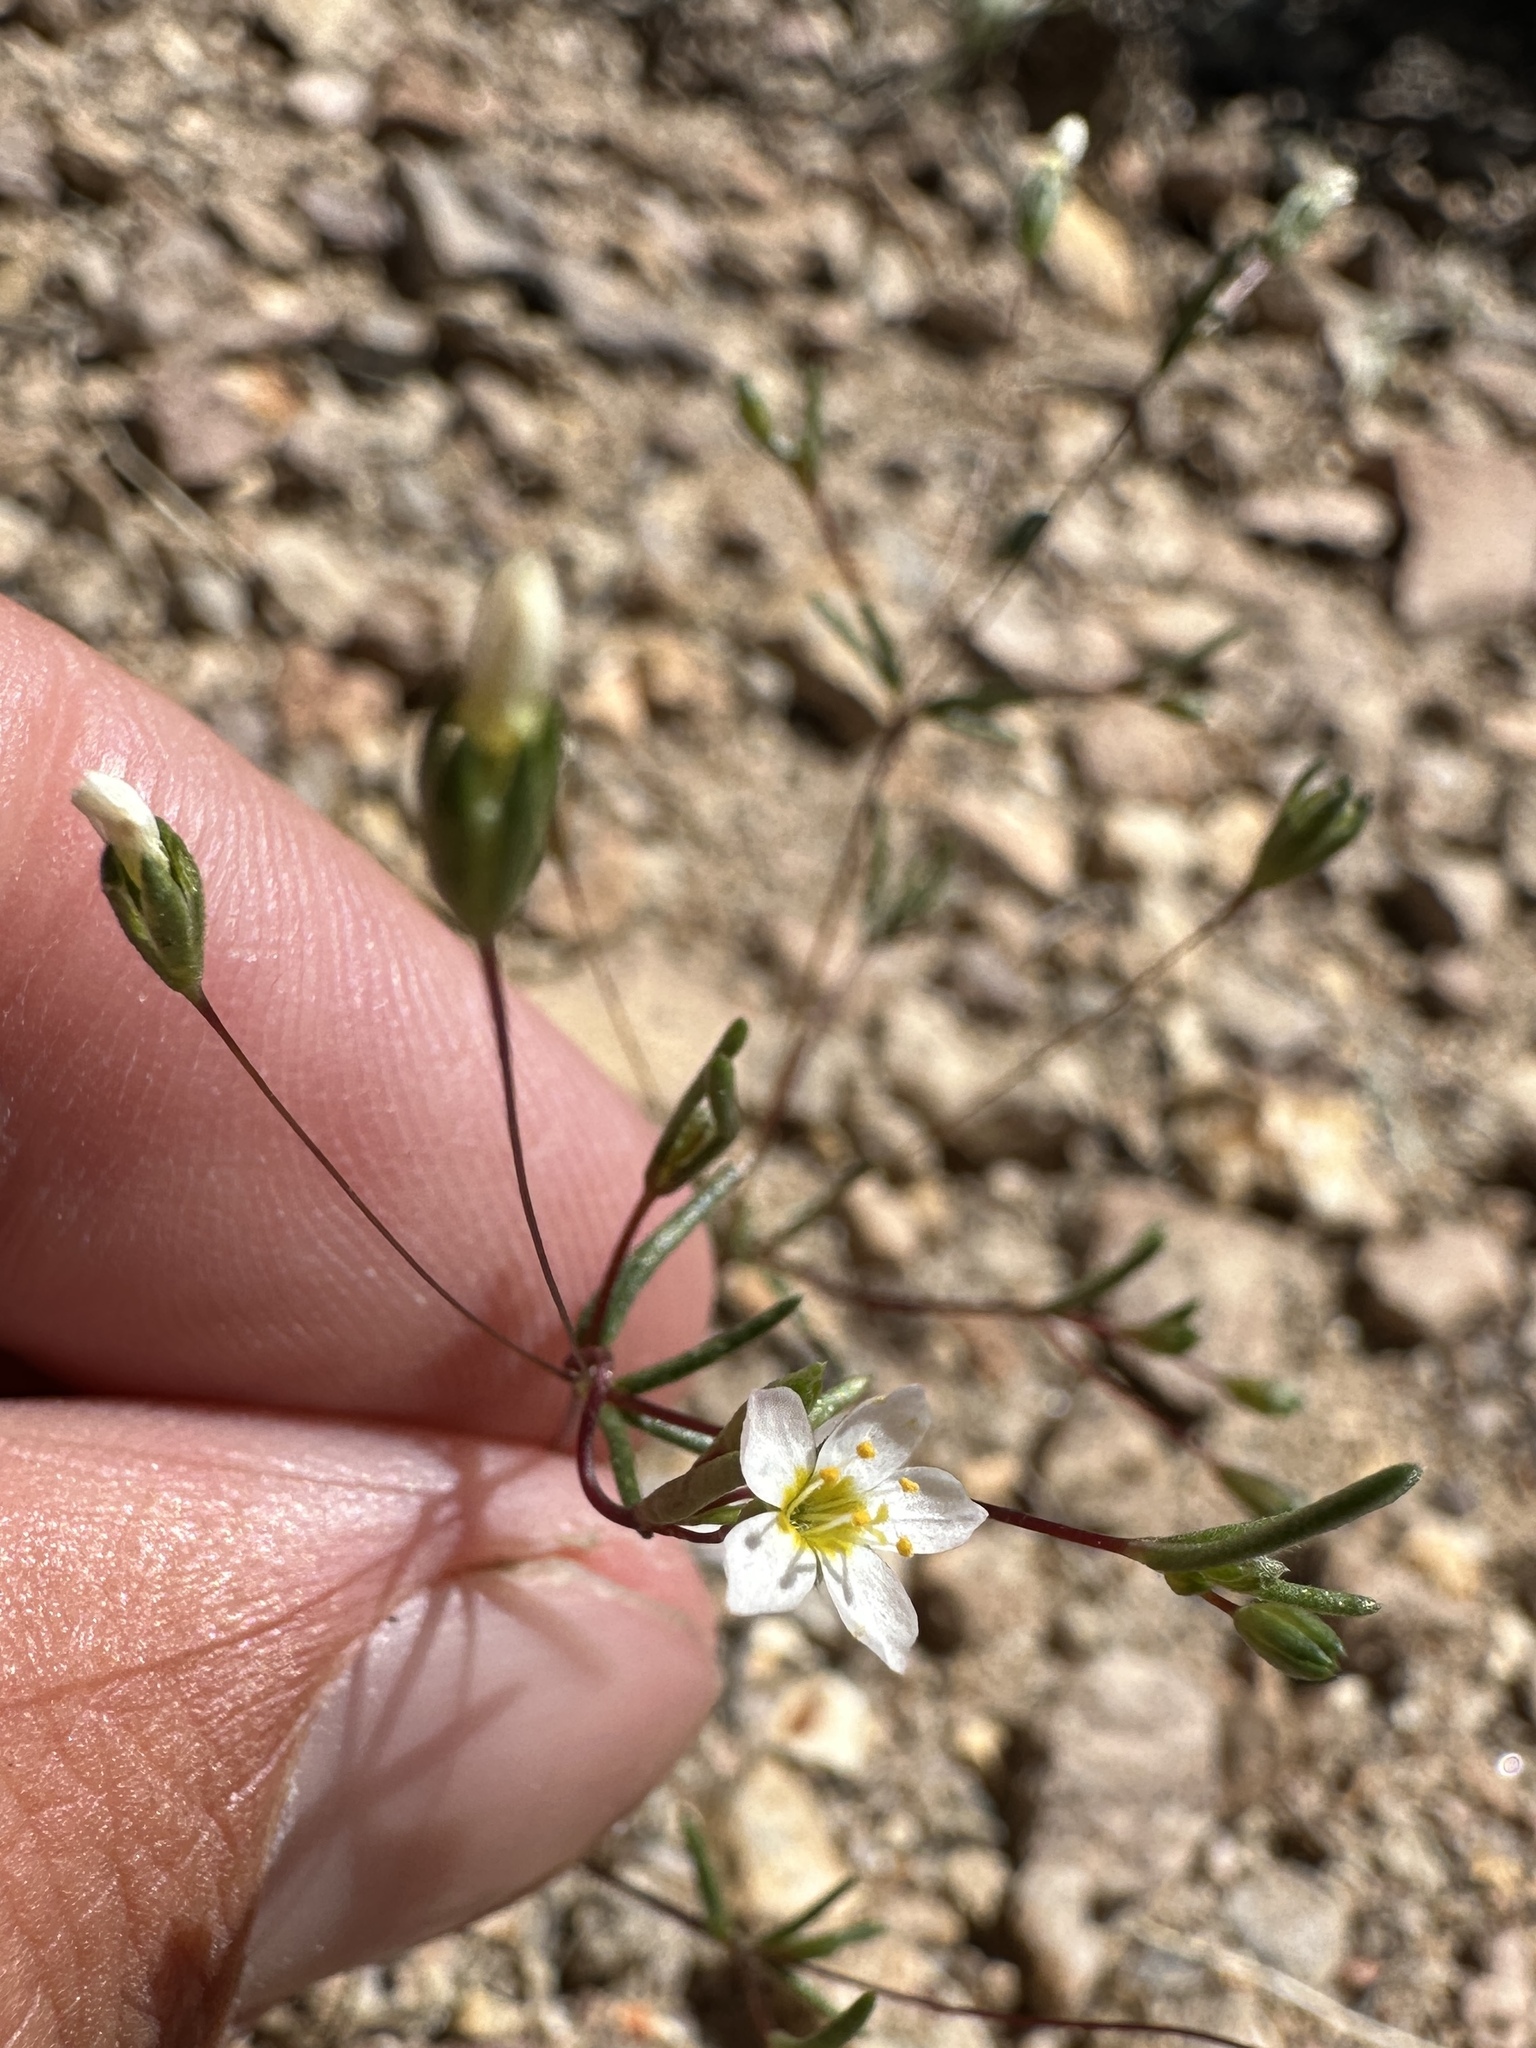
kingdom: Plantae
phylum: Tracheophyta
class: Magnoliopsida
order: Ericales
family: Polemoniaceae
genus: Leptosiphon
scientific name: Leptosiphon septentrionalis
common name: Northern linanthus
